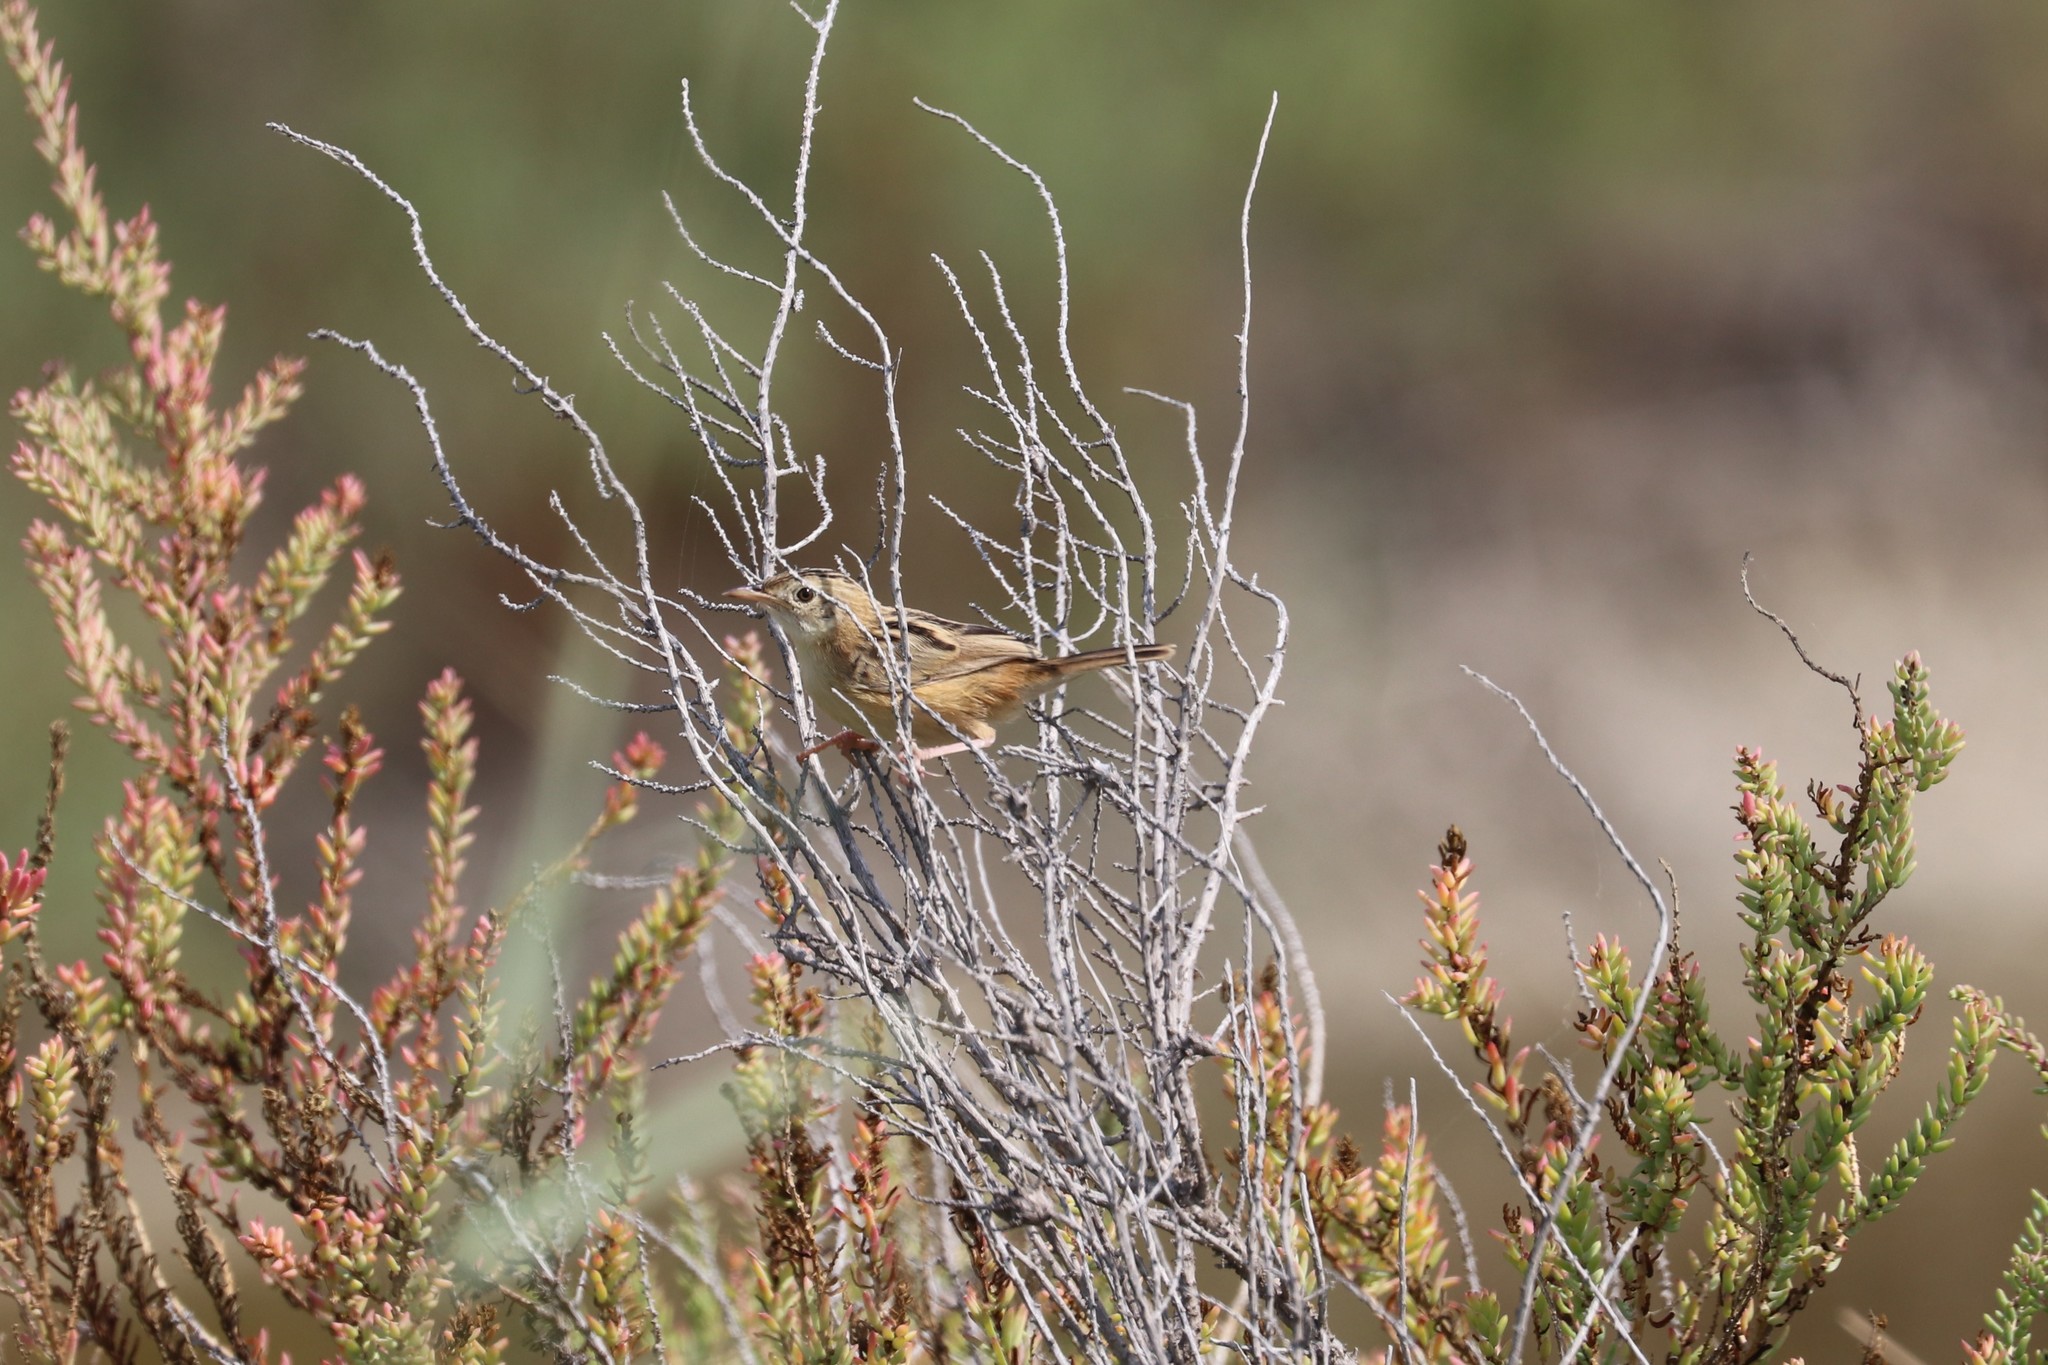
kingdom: Animalia
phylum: Chordata
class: Aves
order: Passeriformes
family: Cisticolidae
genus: Cisticola
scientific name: Cisticola juncidis
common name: Zitting cisticola
